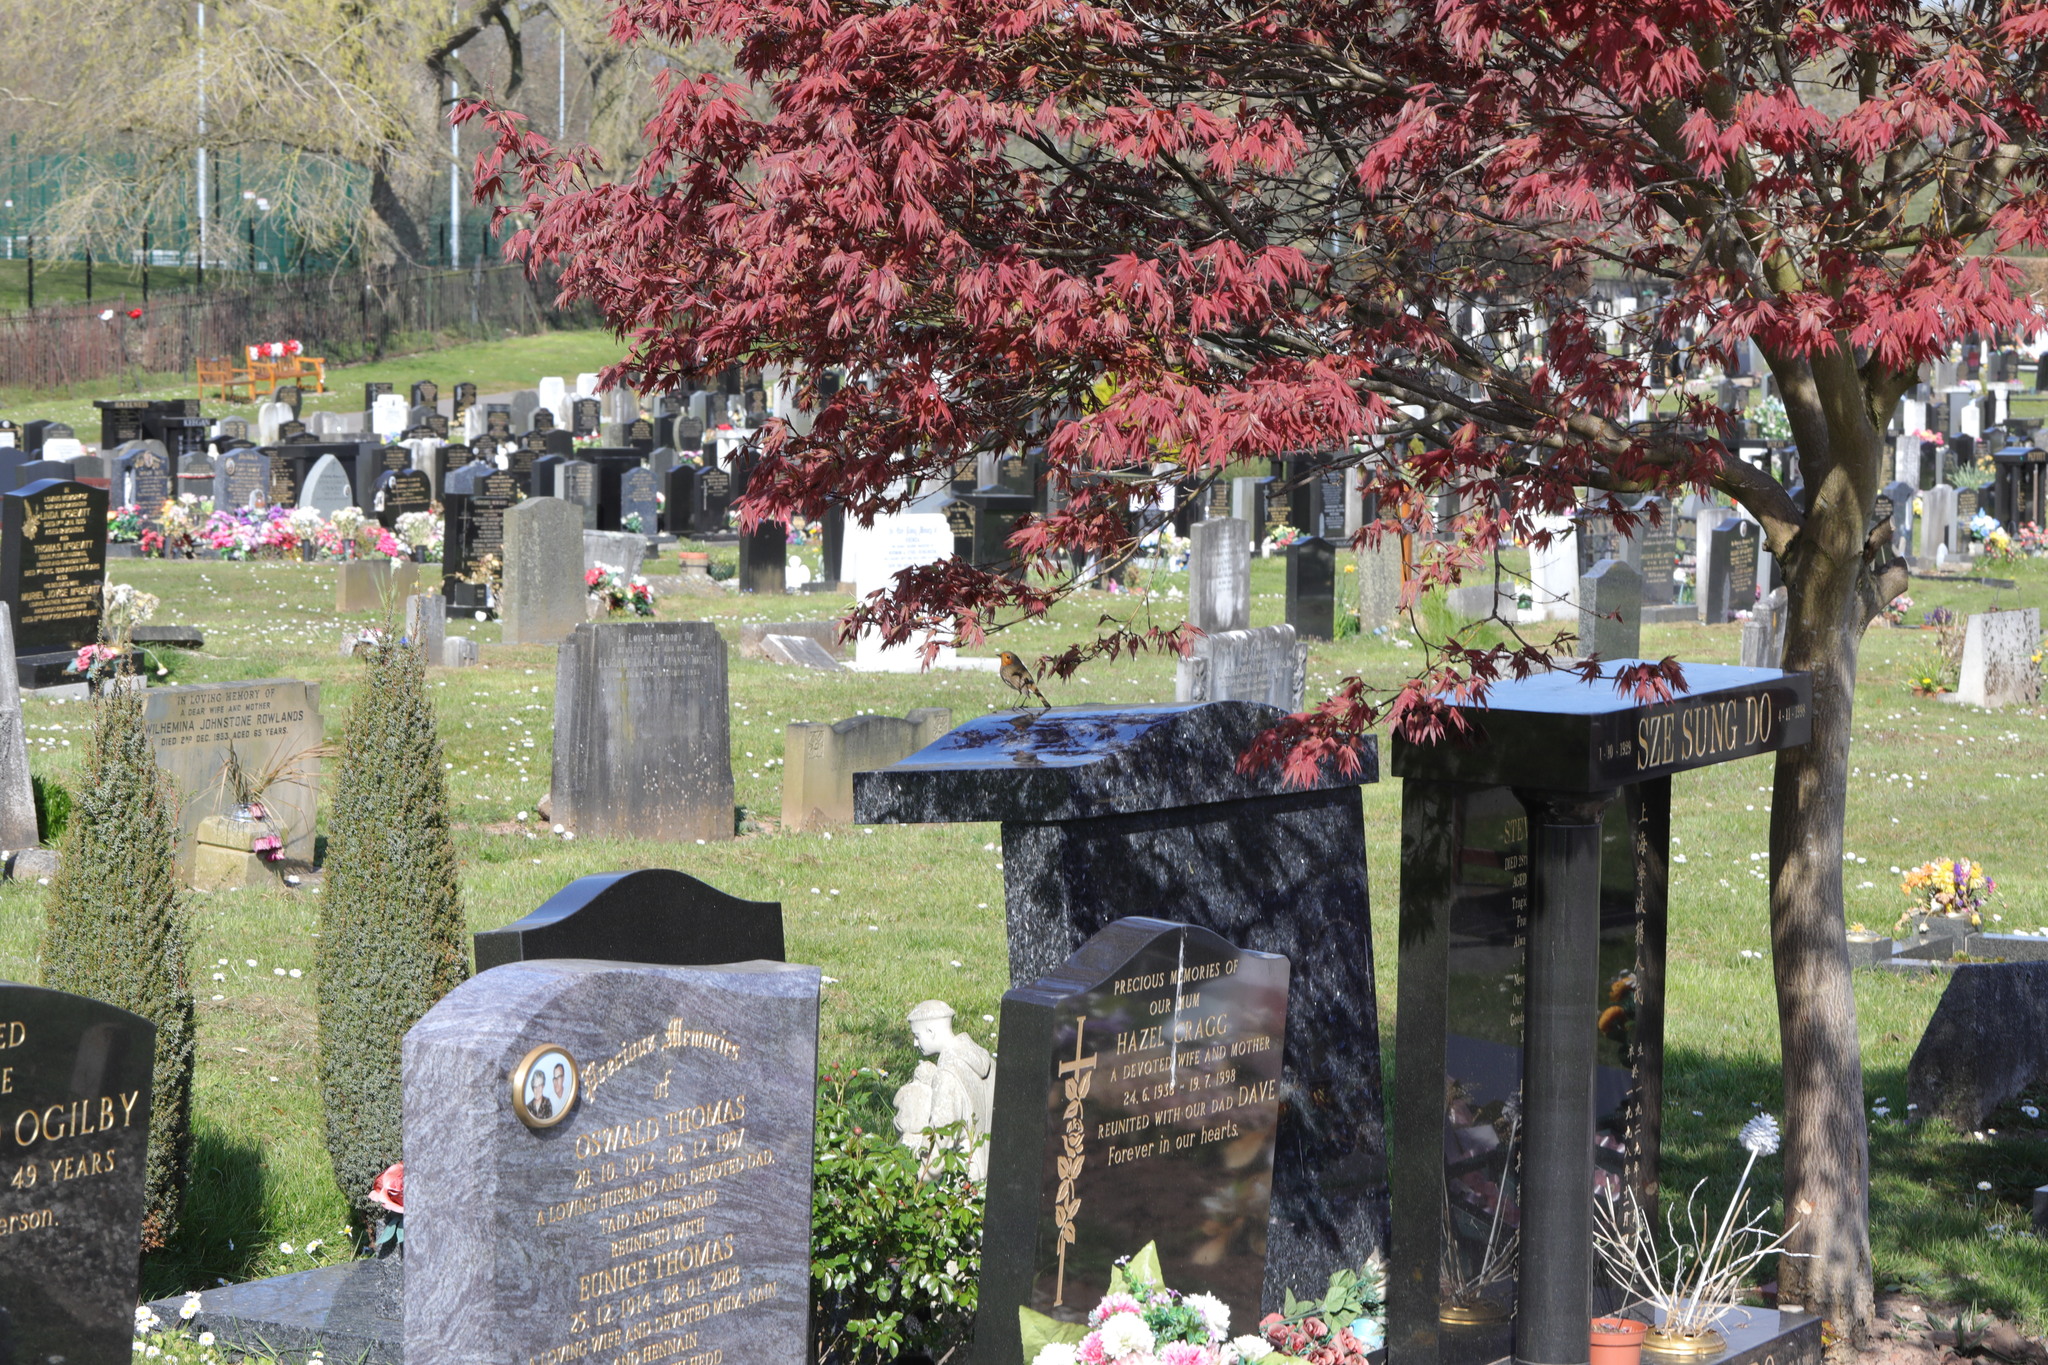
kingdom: Animalia
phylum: Chordata
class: Aves
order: Passeriformes
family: Muscicapidae
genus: Erithacus
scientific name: Erithacus rubecula
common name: European robin
